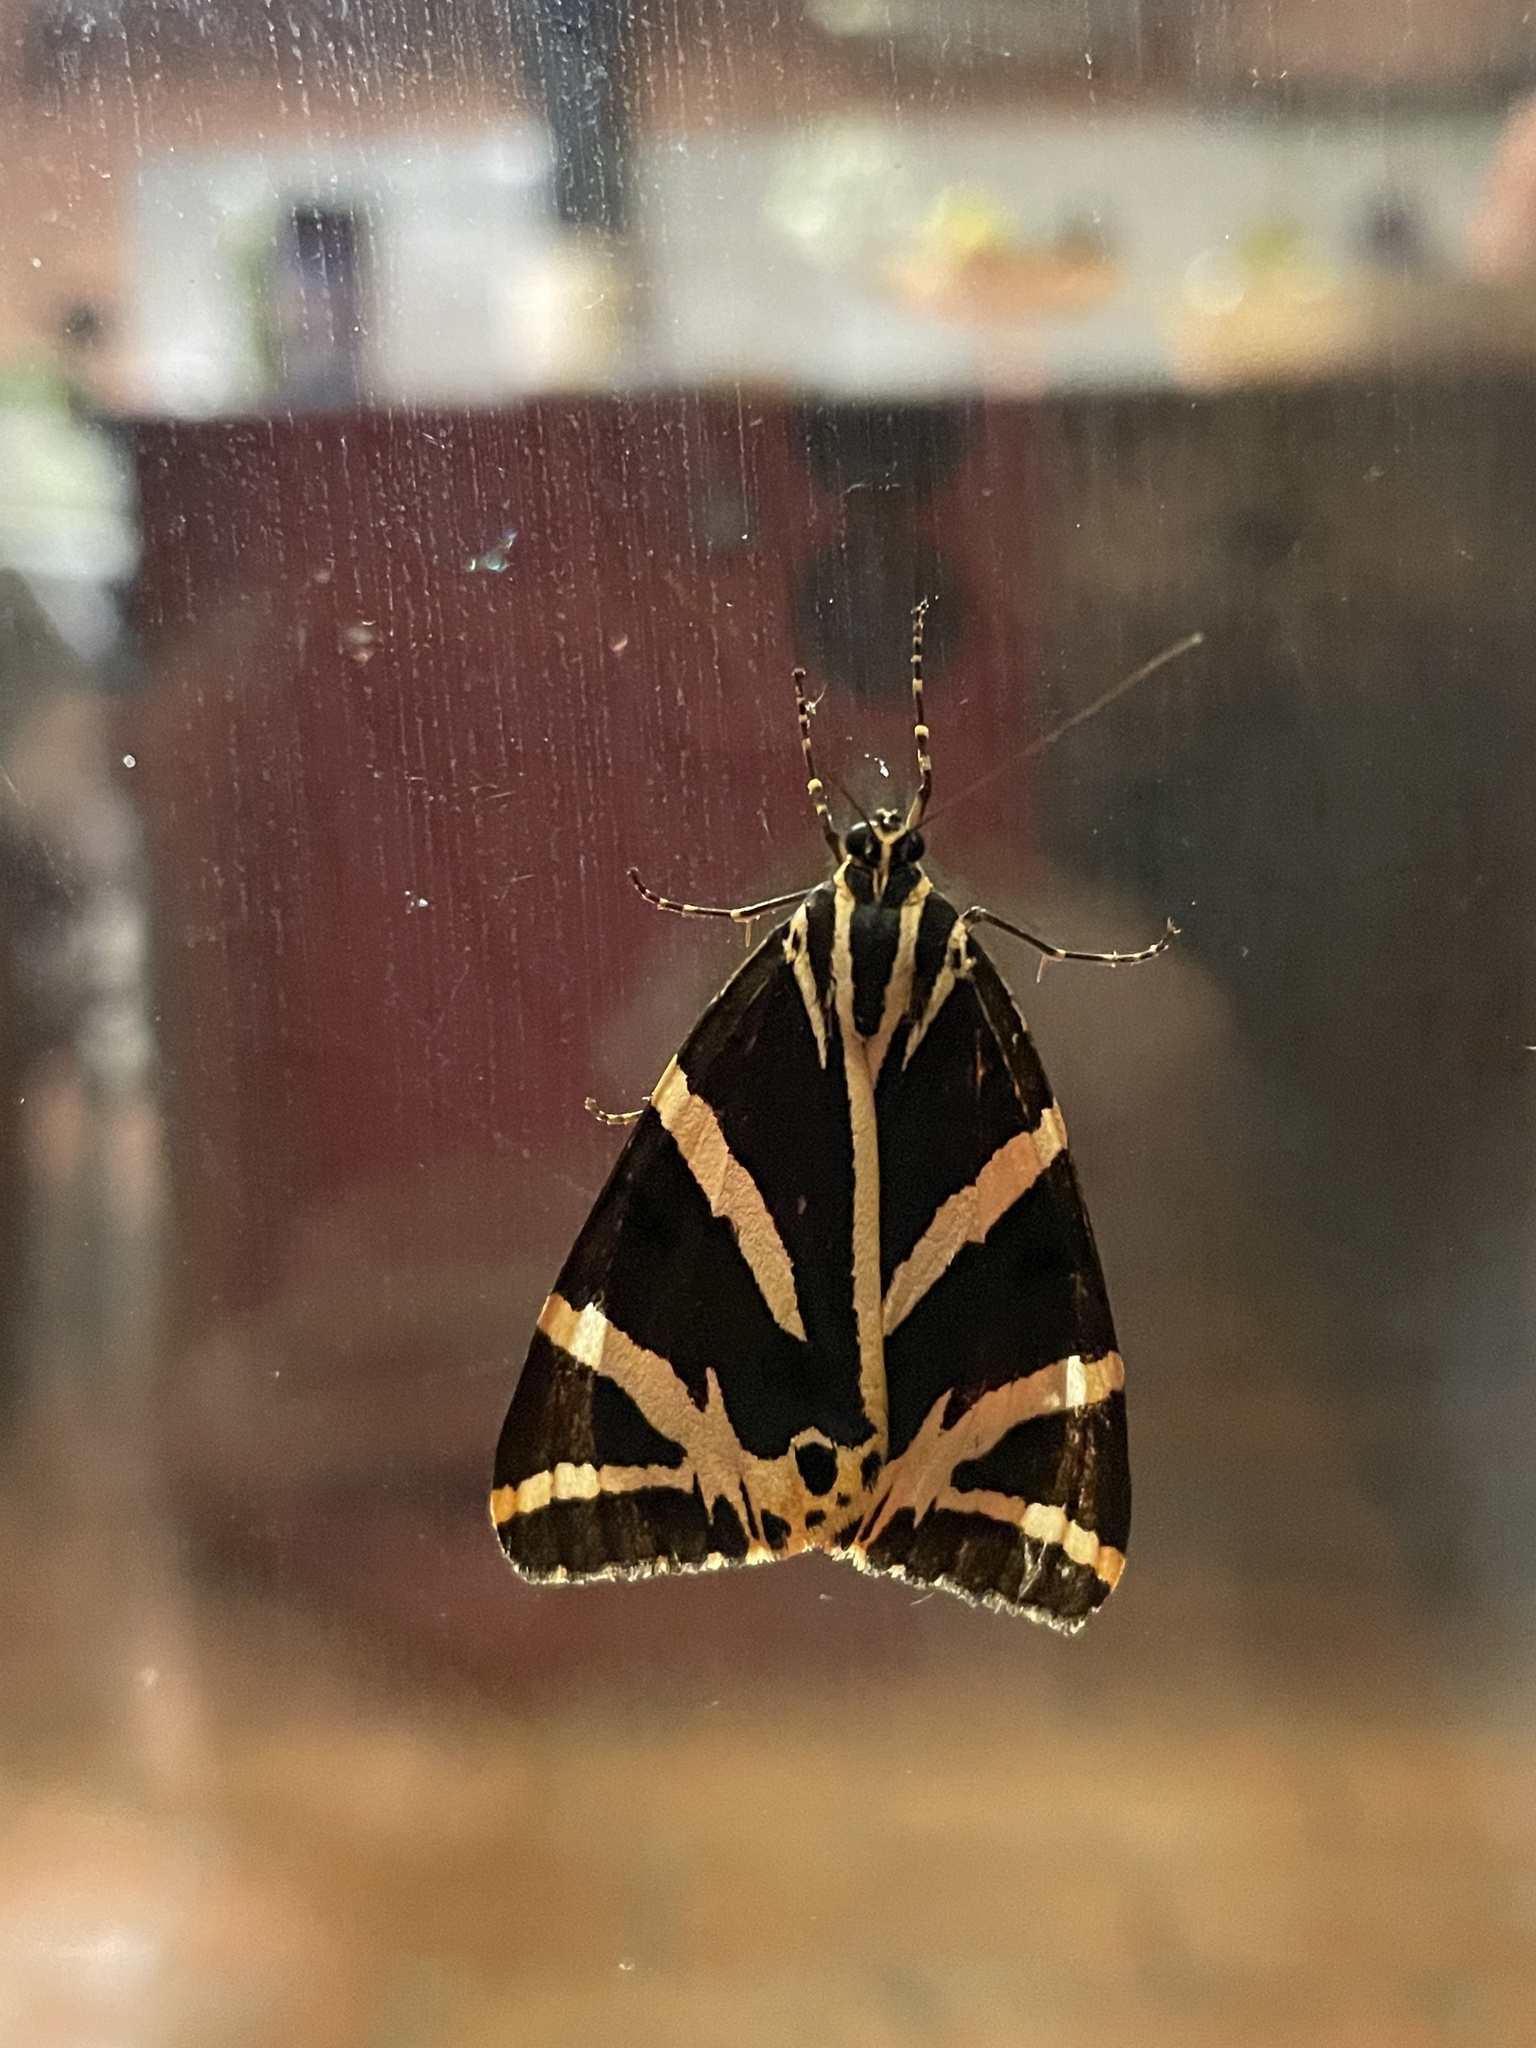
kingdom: Animalia
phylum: Arthropoda
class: Insecta
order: Lepidoptera
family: Erebidae
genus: Euplagia
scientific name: Euplagia quadripunctaria
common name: Jersey tiger
